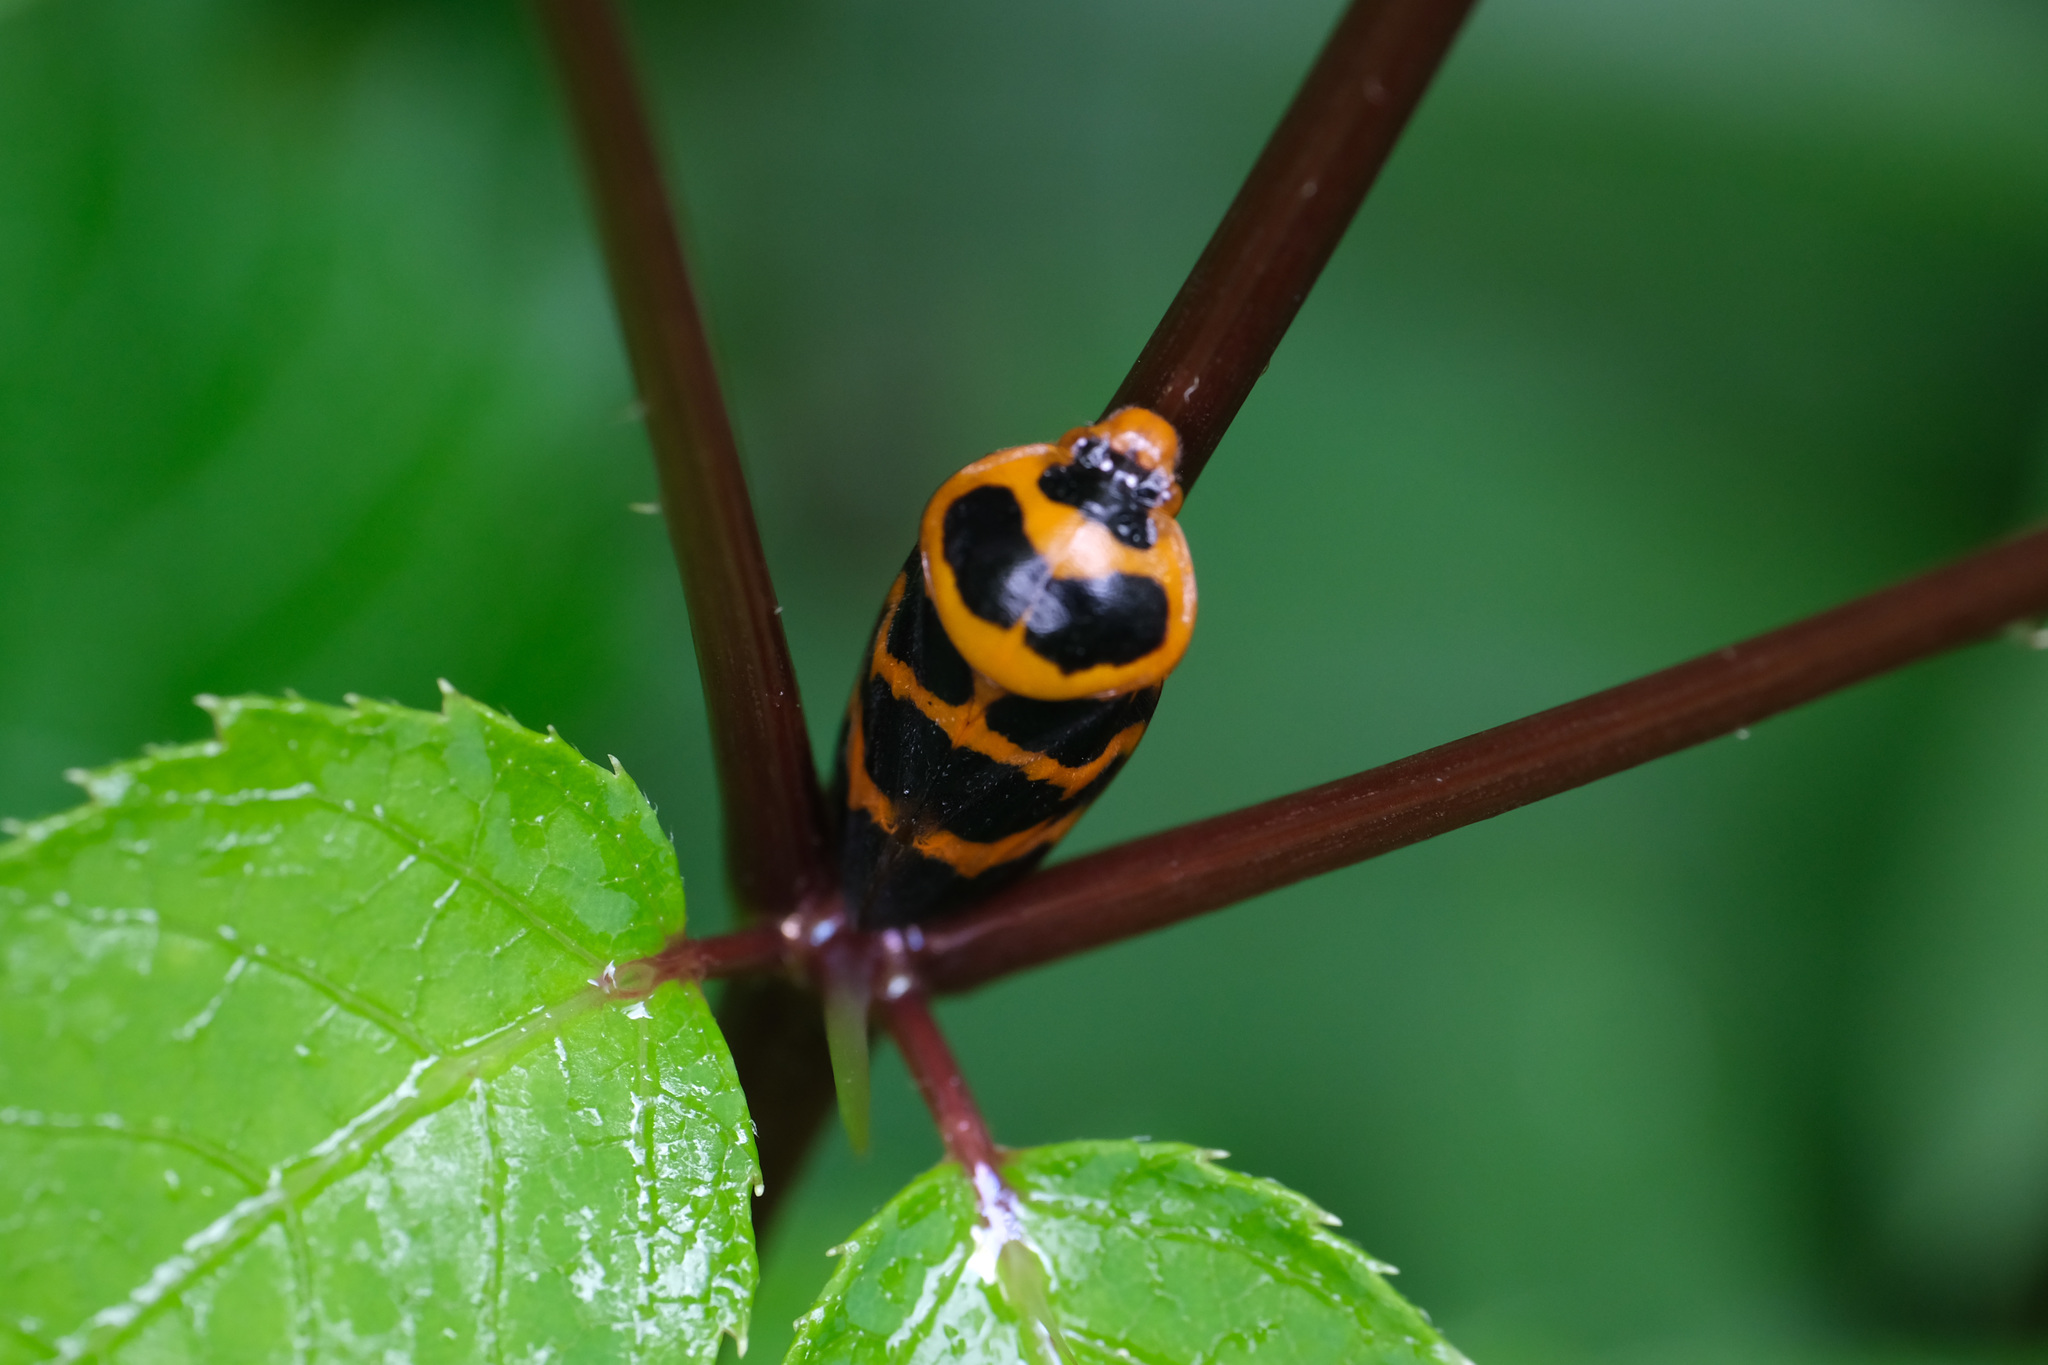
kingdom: Animalia
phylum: Arthropoda
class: Insecta
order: Hemiptera
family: Cercopidae
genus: Cosmoscarta
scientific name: Cosmoscarta bispecularis
